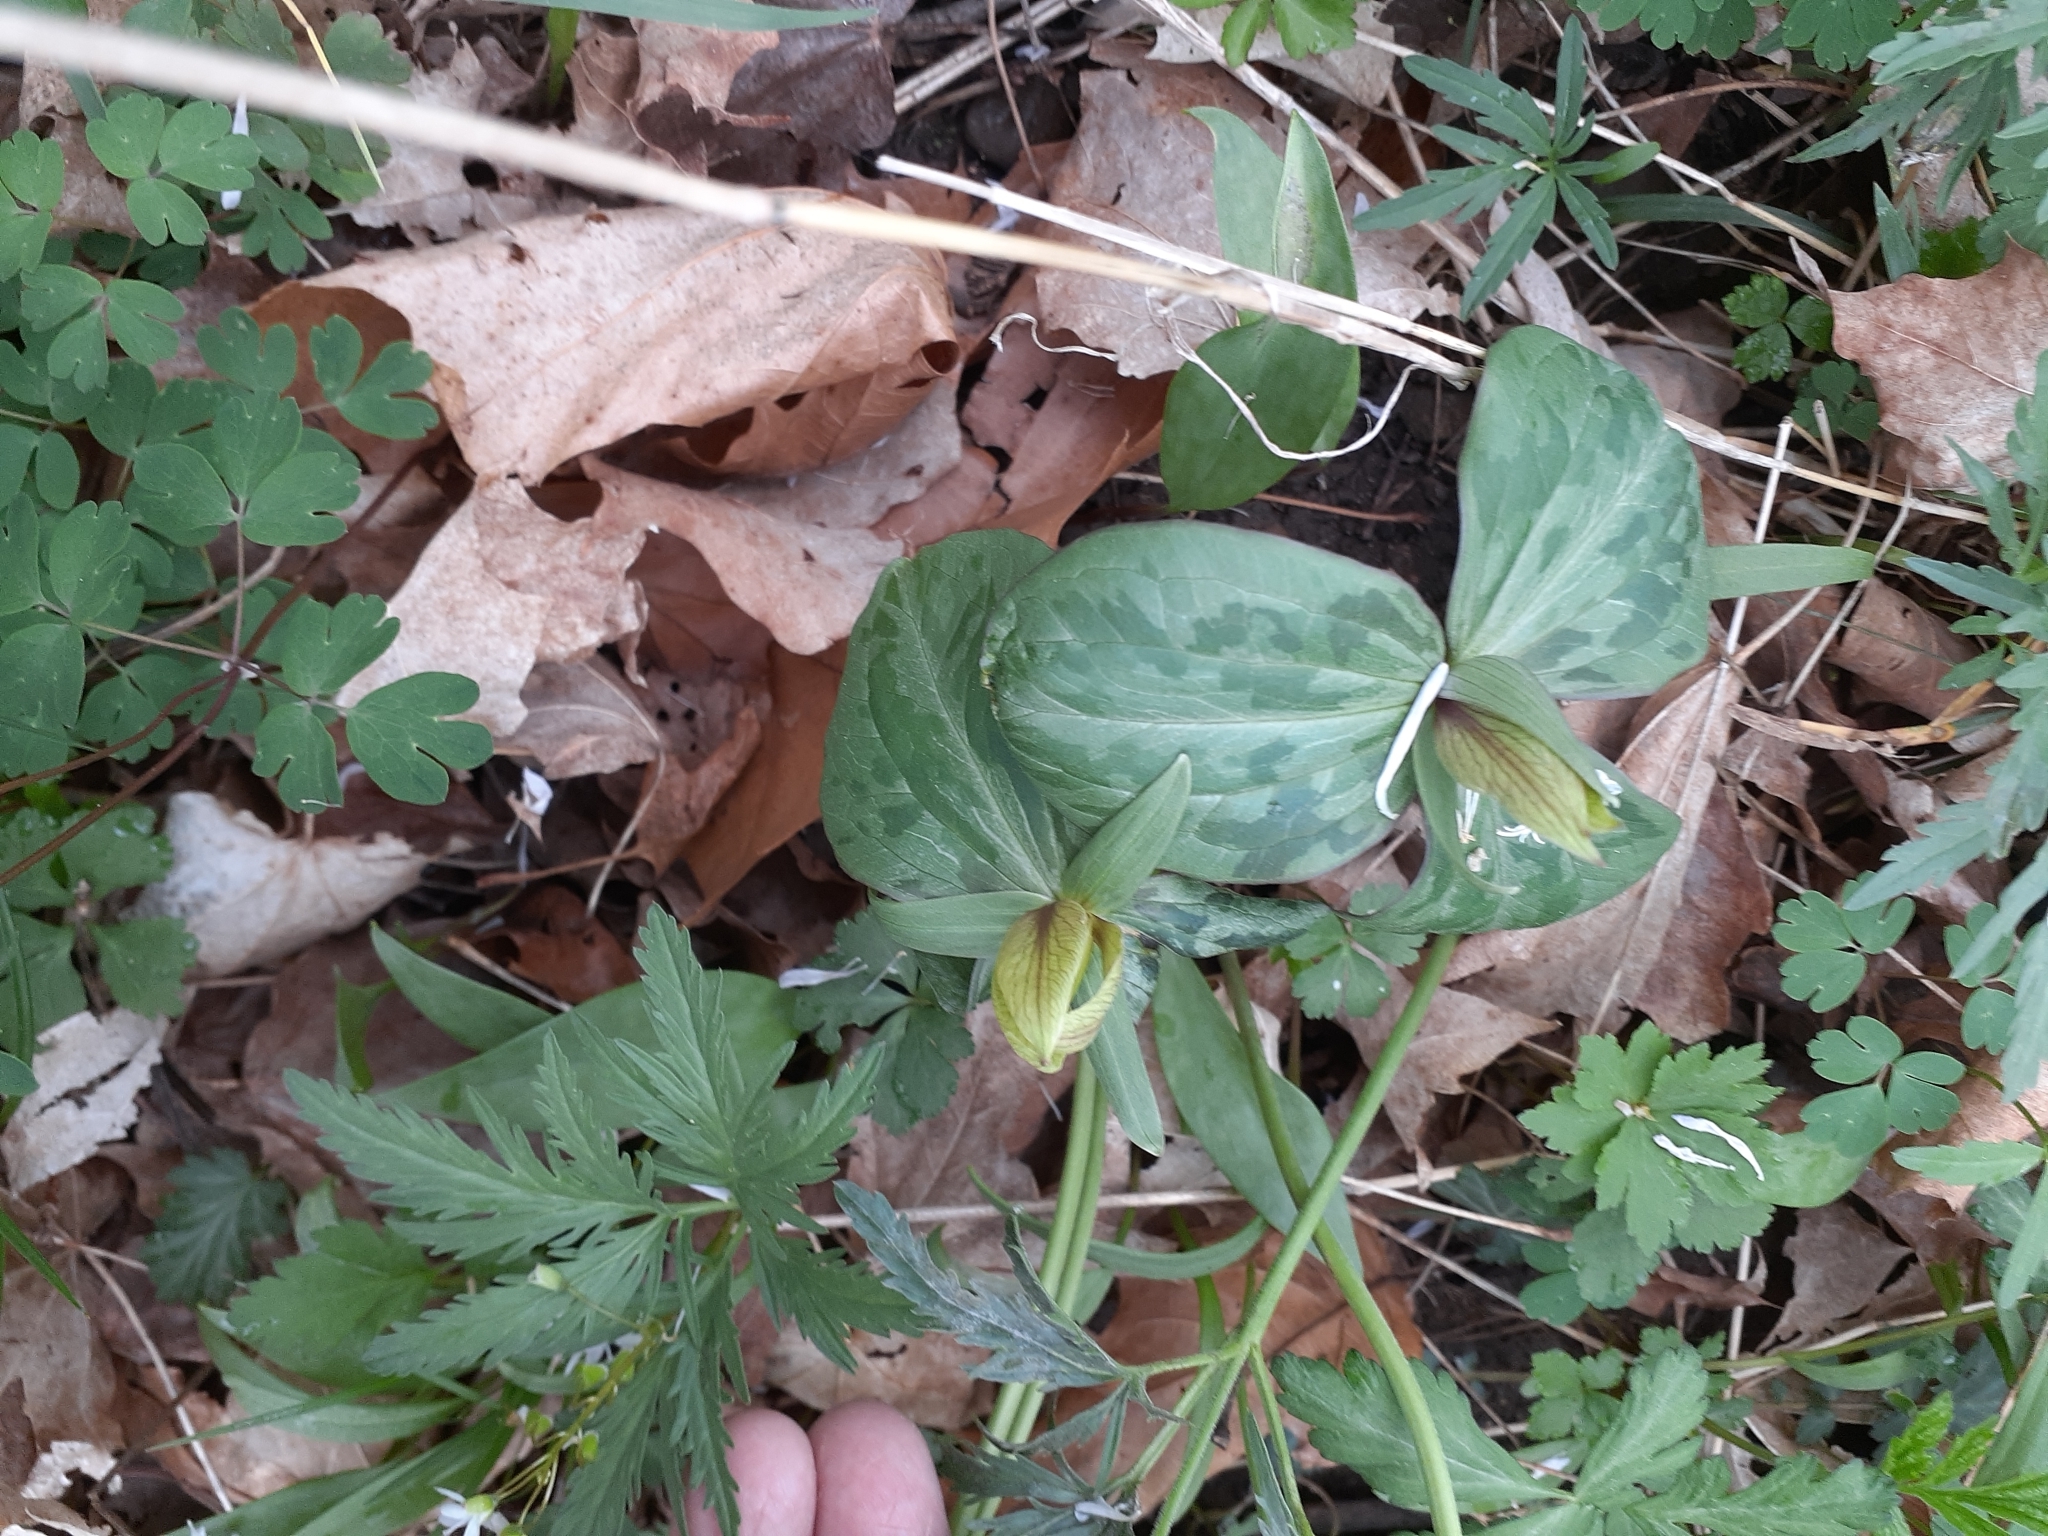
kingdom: Plantae
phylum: Tracheophyta
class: Liliopsida
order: Liliales
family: Melanthiaceae
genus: Trillium
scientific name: Trillium sessile
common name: Sessile trillium
